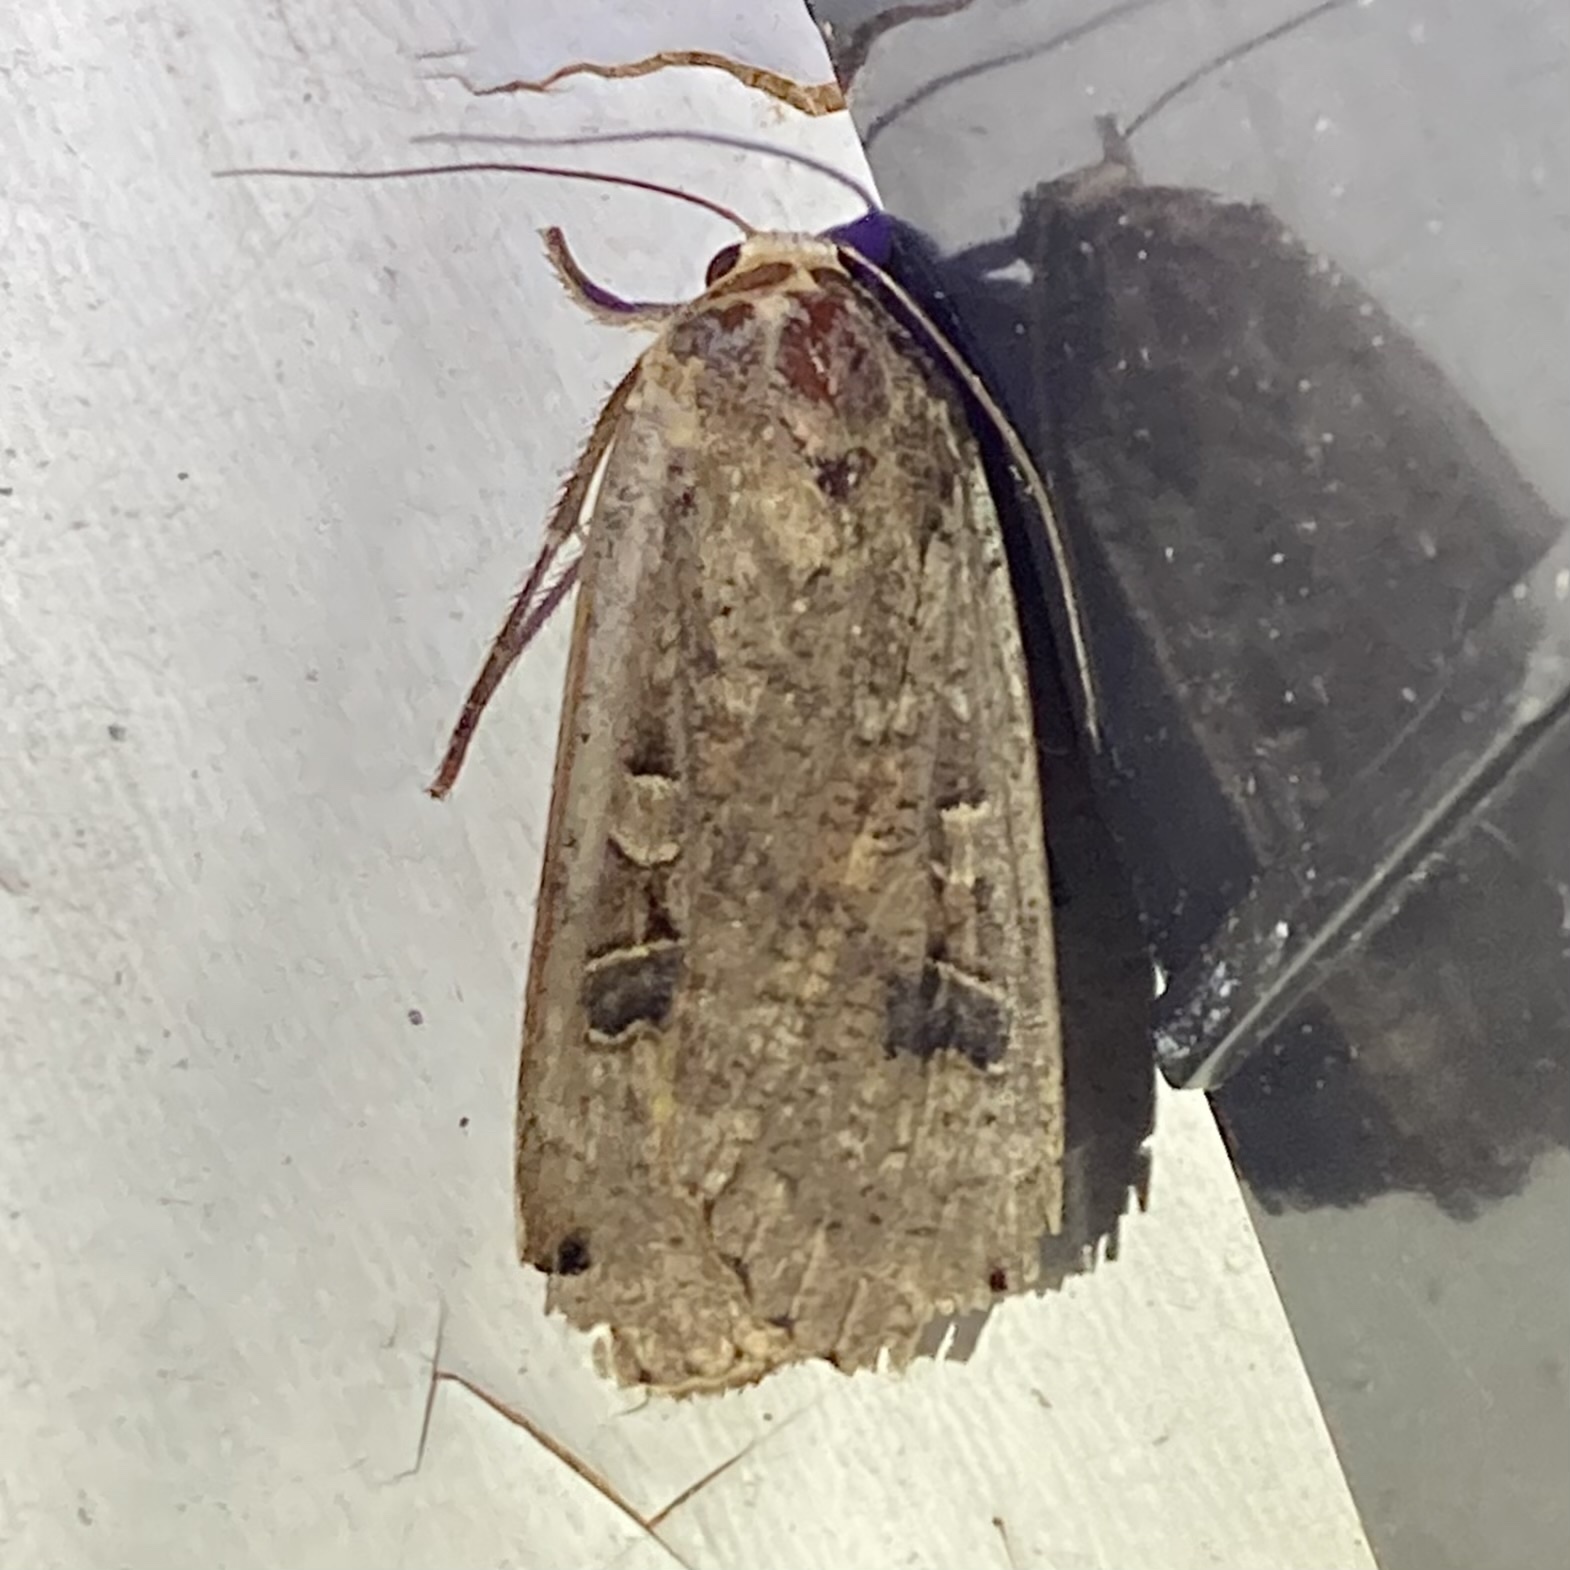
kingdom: Animalia
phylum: Arthropoda
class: Insecta
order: Lepidoptera
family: Noctuidae
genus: Noctua
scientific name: Noctua pronuba
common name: Large yellow underwing
